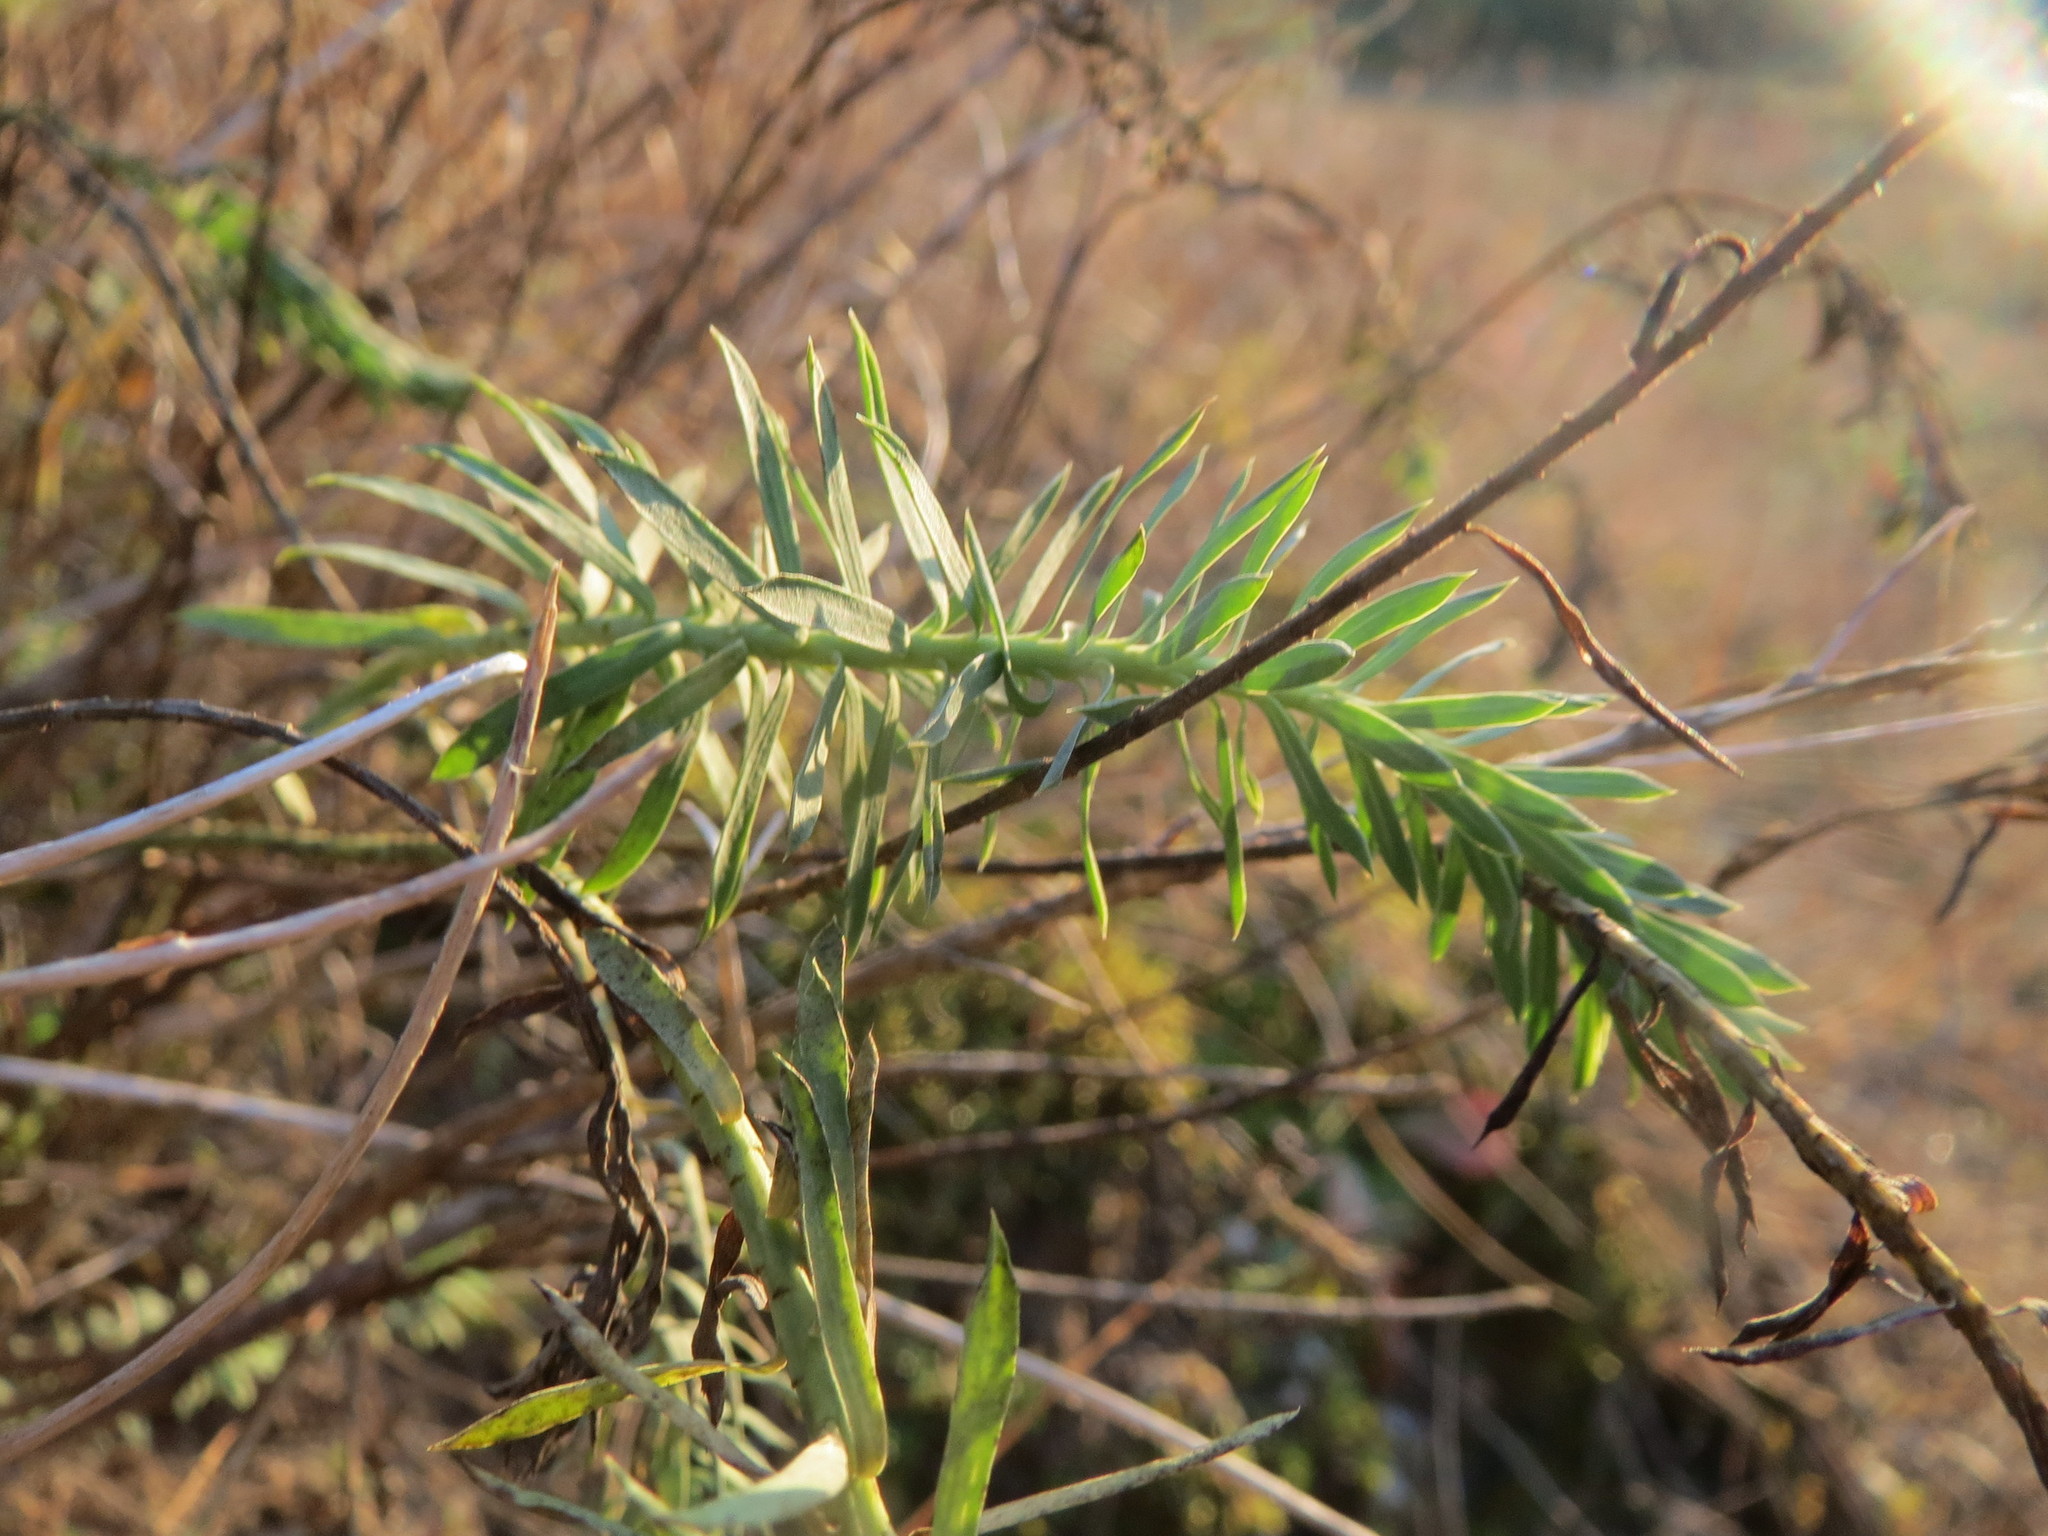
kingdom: Plantae
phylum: Tracheophyta
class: Magnoliopsida
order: Malpighiales
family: Euphorbiaceae
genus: Euphorbia
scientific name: Euphorbia cyparissias
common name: Cypress spurge
